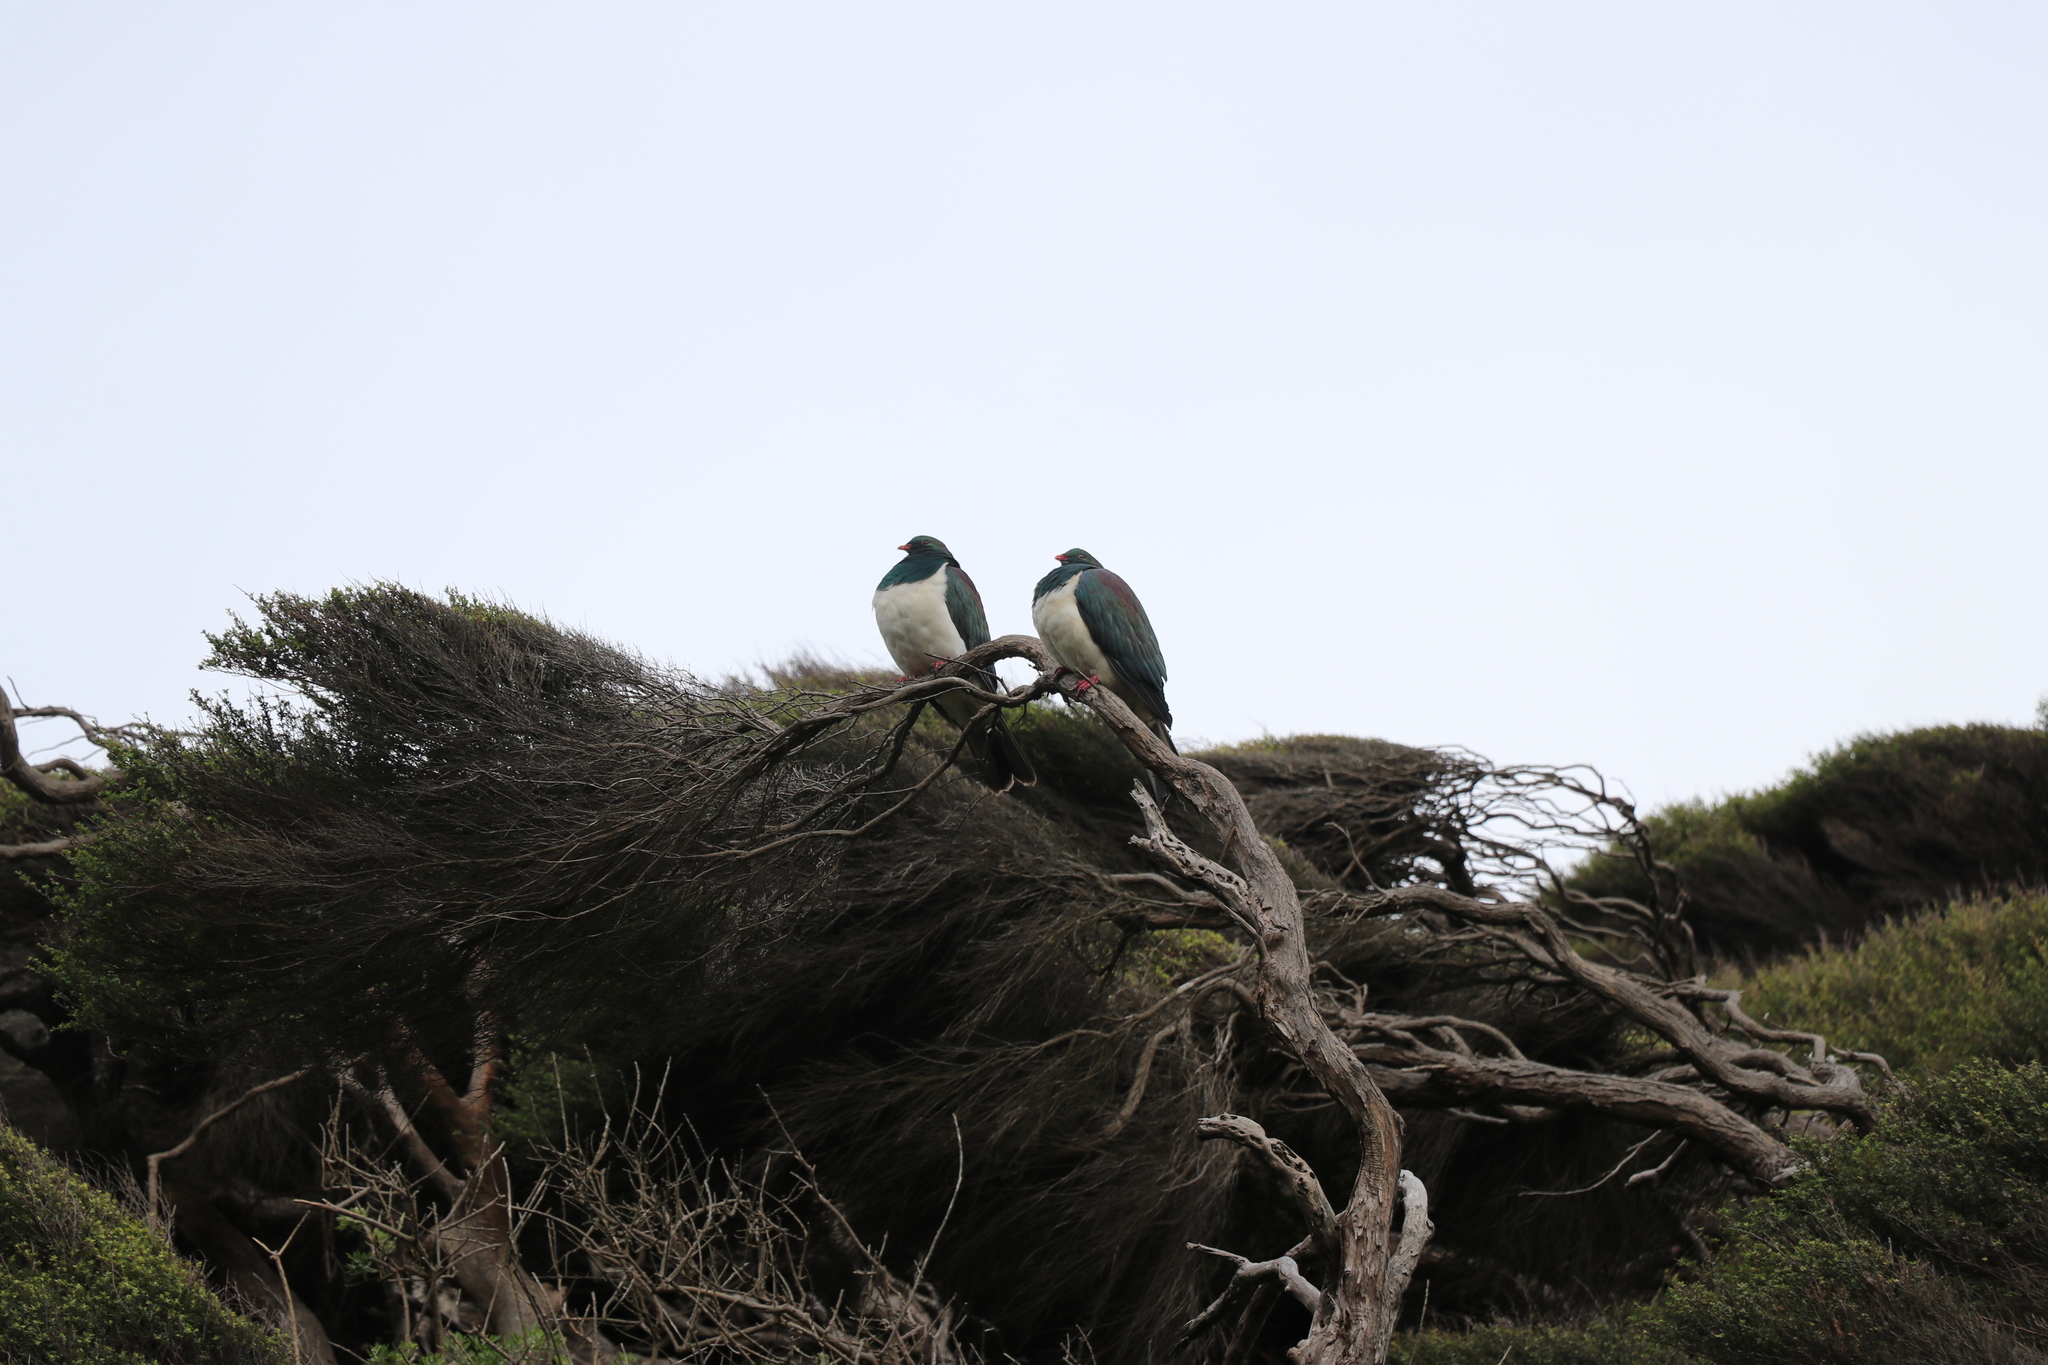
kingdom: Animalia
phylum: Chordata
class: Aves
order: Columbiformes
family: Columbidae
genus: Hemiphaga
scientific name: Hemiphaga novaeseelandiae
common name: New zealand pigeon
